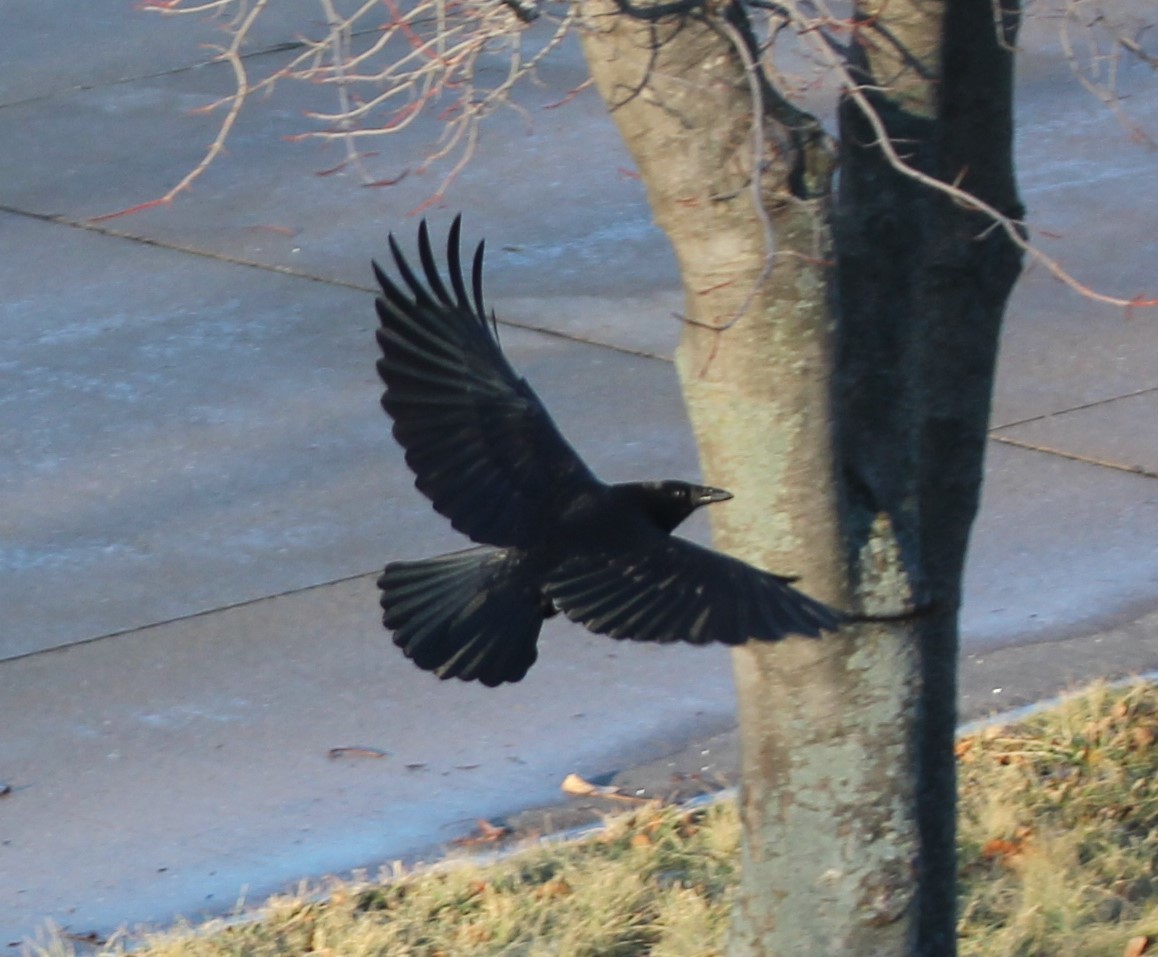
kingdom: Animalia
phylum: Chordata
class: Aves
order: Passeriformes
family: Corvidae
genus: Corvus
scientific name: Corvus brachyrhynchos
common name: American crow
